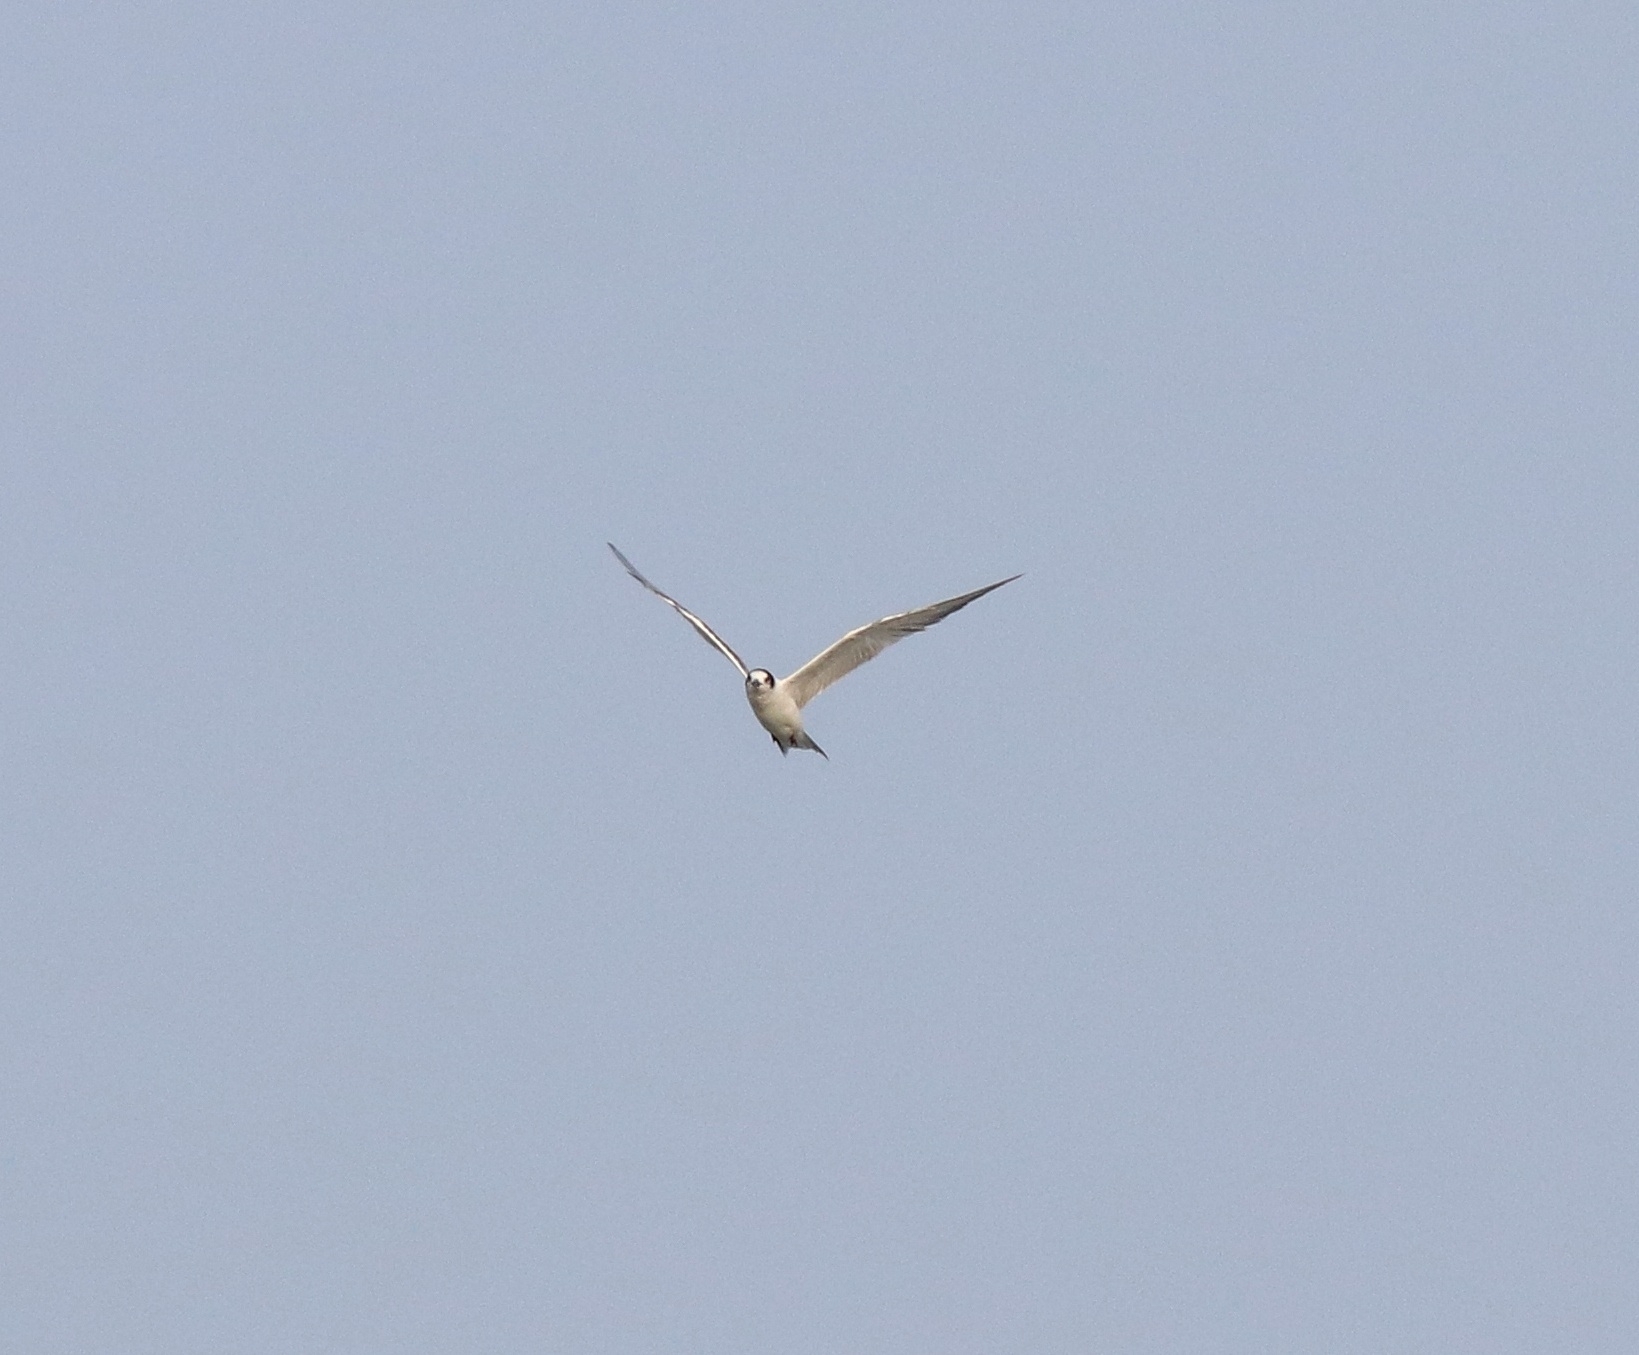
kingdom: Animalia
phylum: Chordata
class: Aves
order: Charadriiformes
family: Laridae
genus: Sterna
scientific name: Sterna hirundo
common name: Common tern
